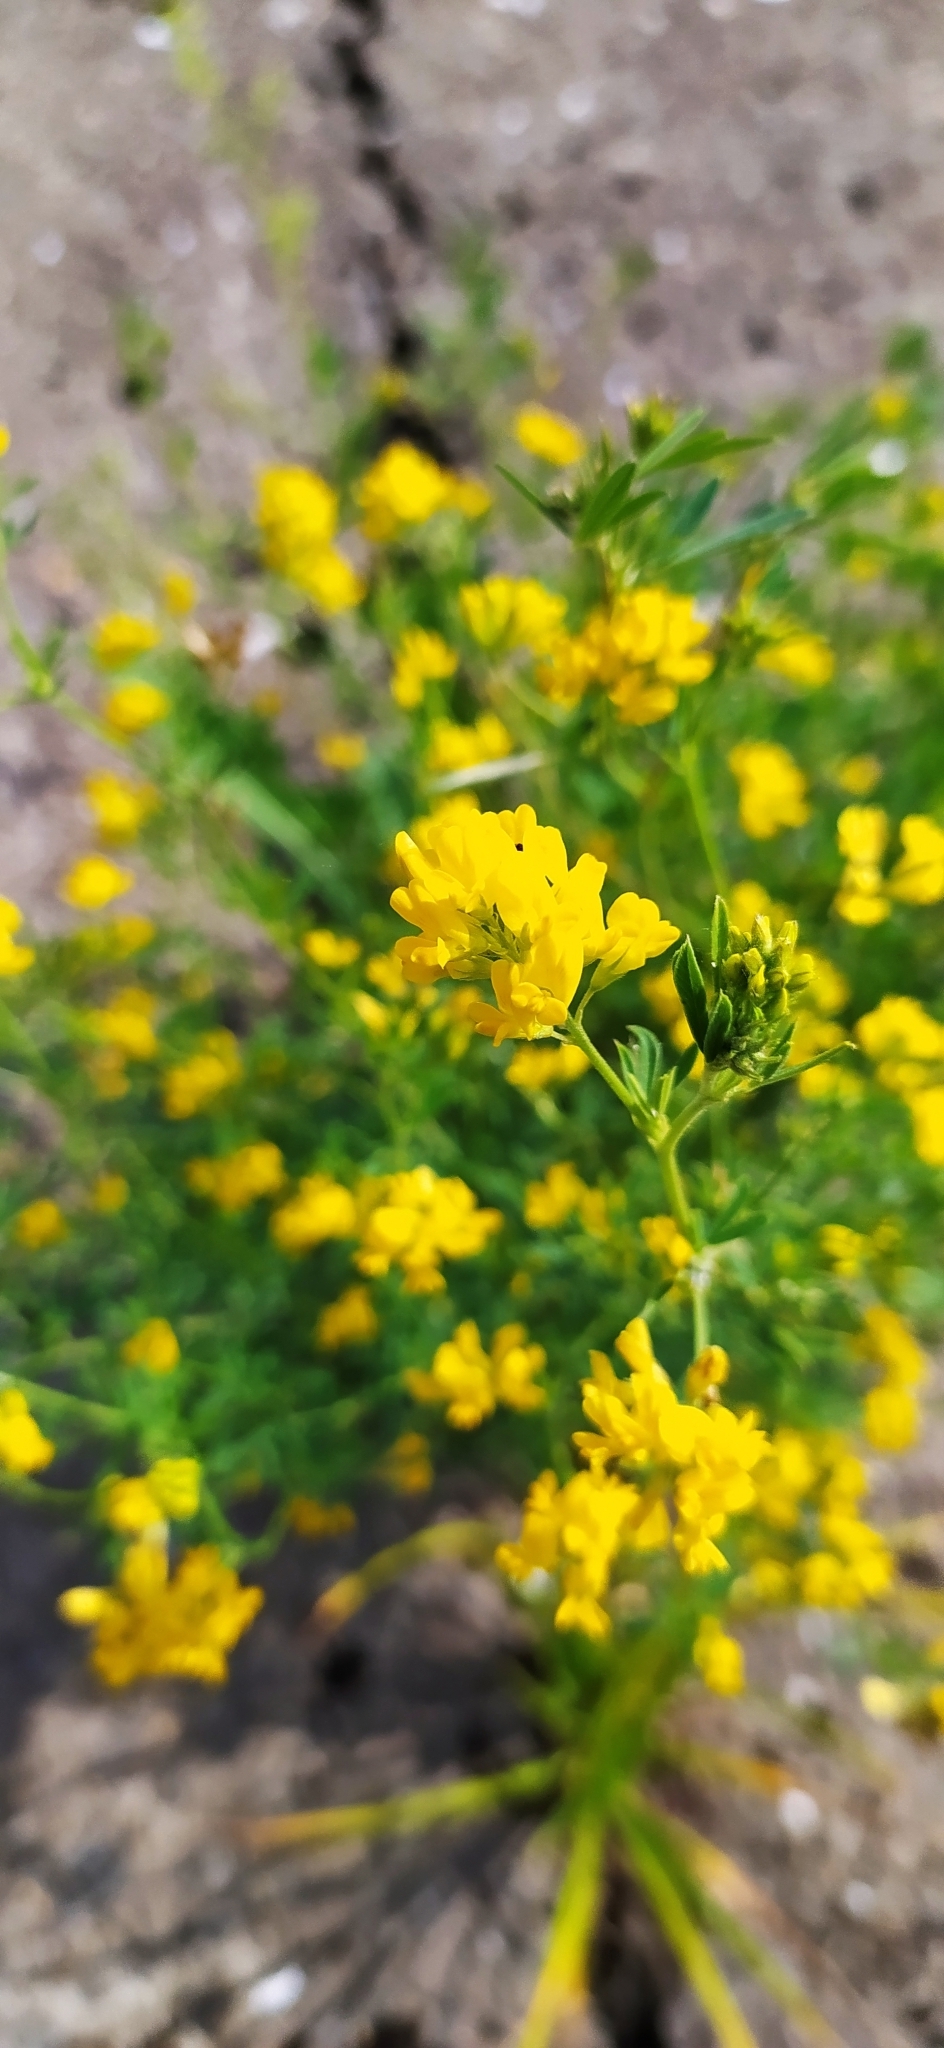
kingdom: Plantae
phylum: Tracheophyta
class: Magnoliopsida
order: Fabales
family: Fabaceae
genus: Medicago
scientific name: Medicago falcata
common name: Sickle medick
